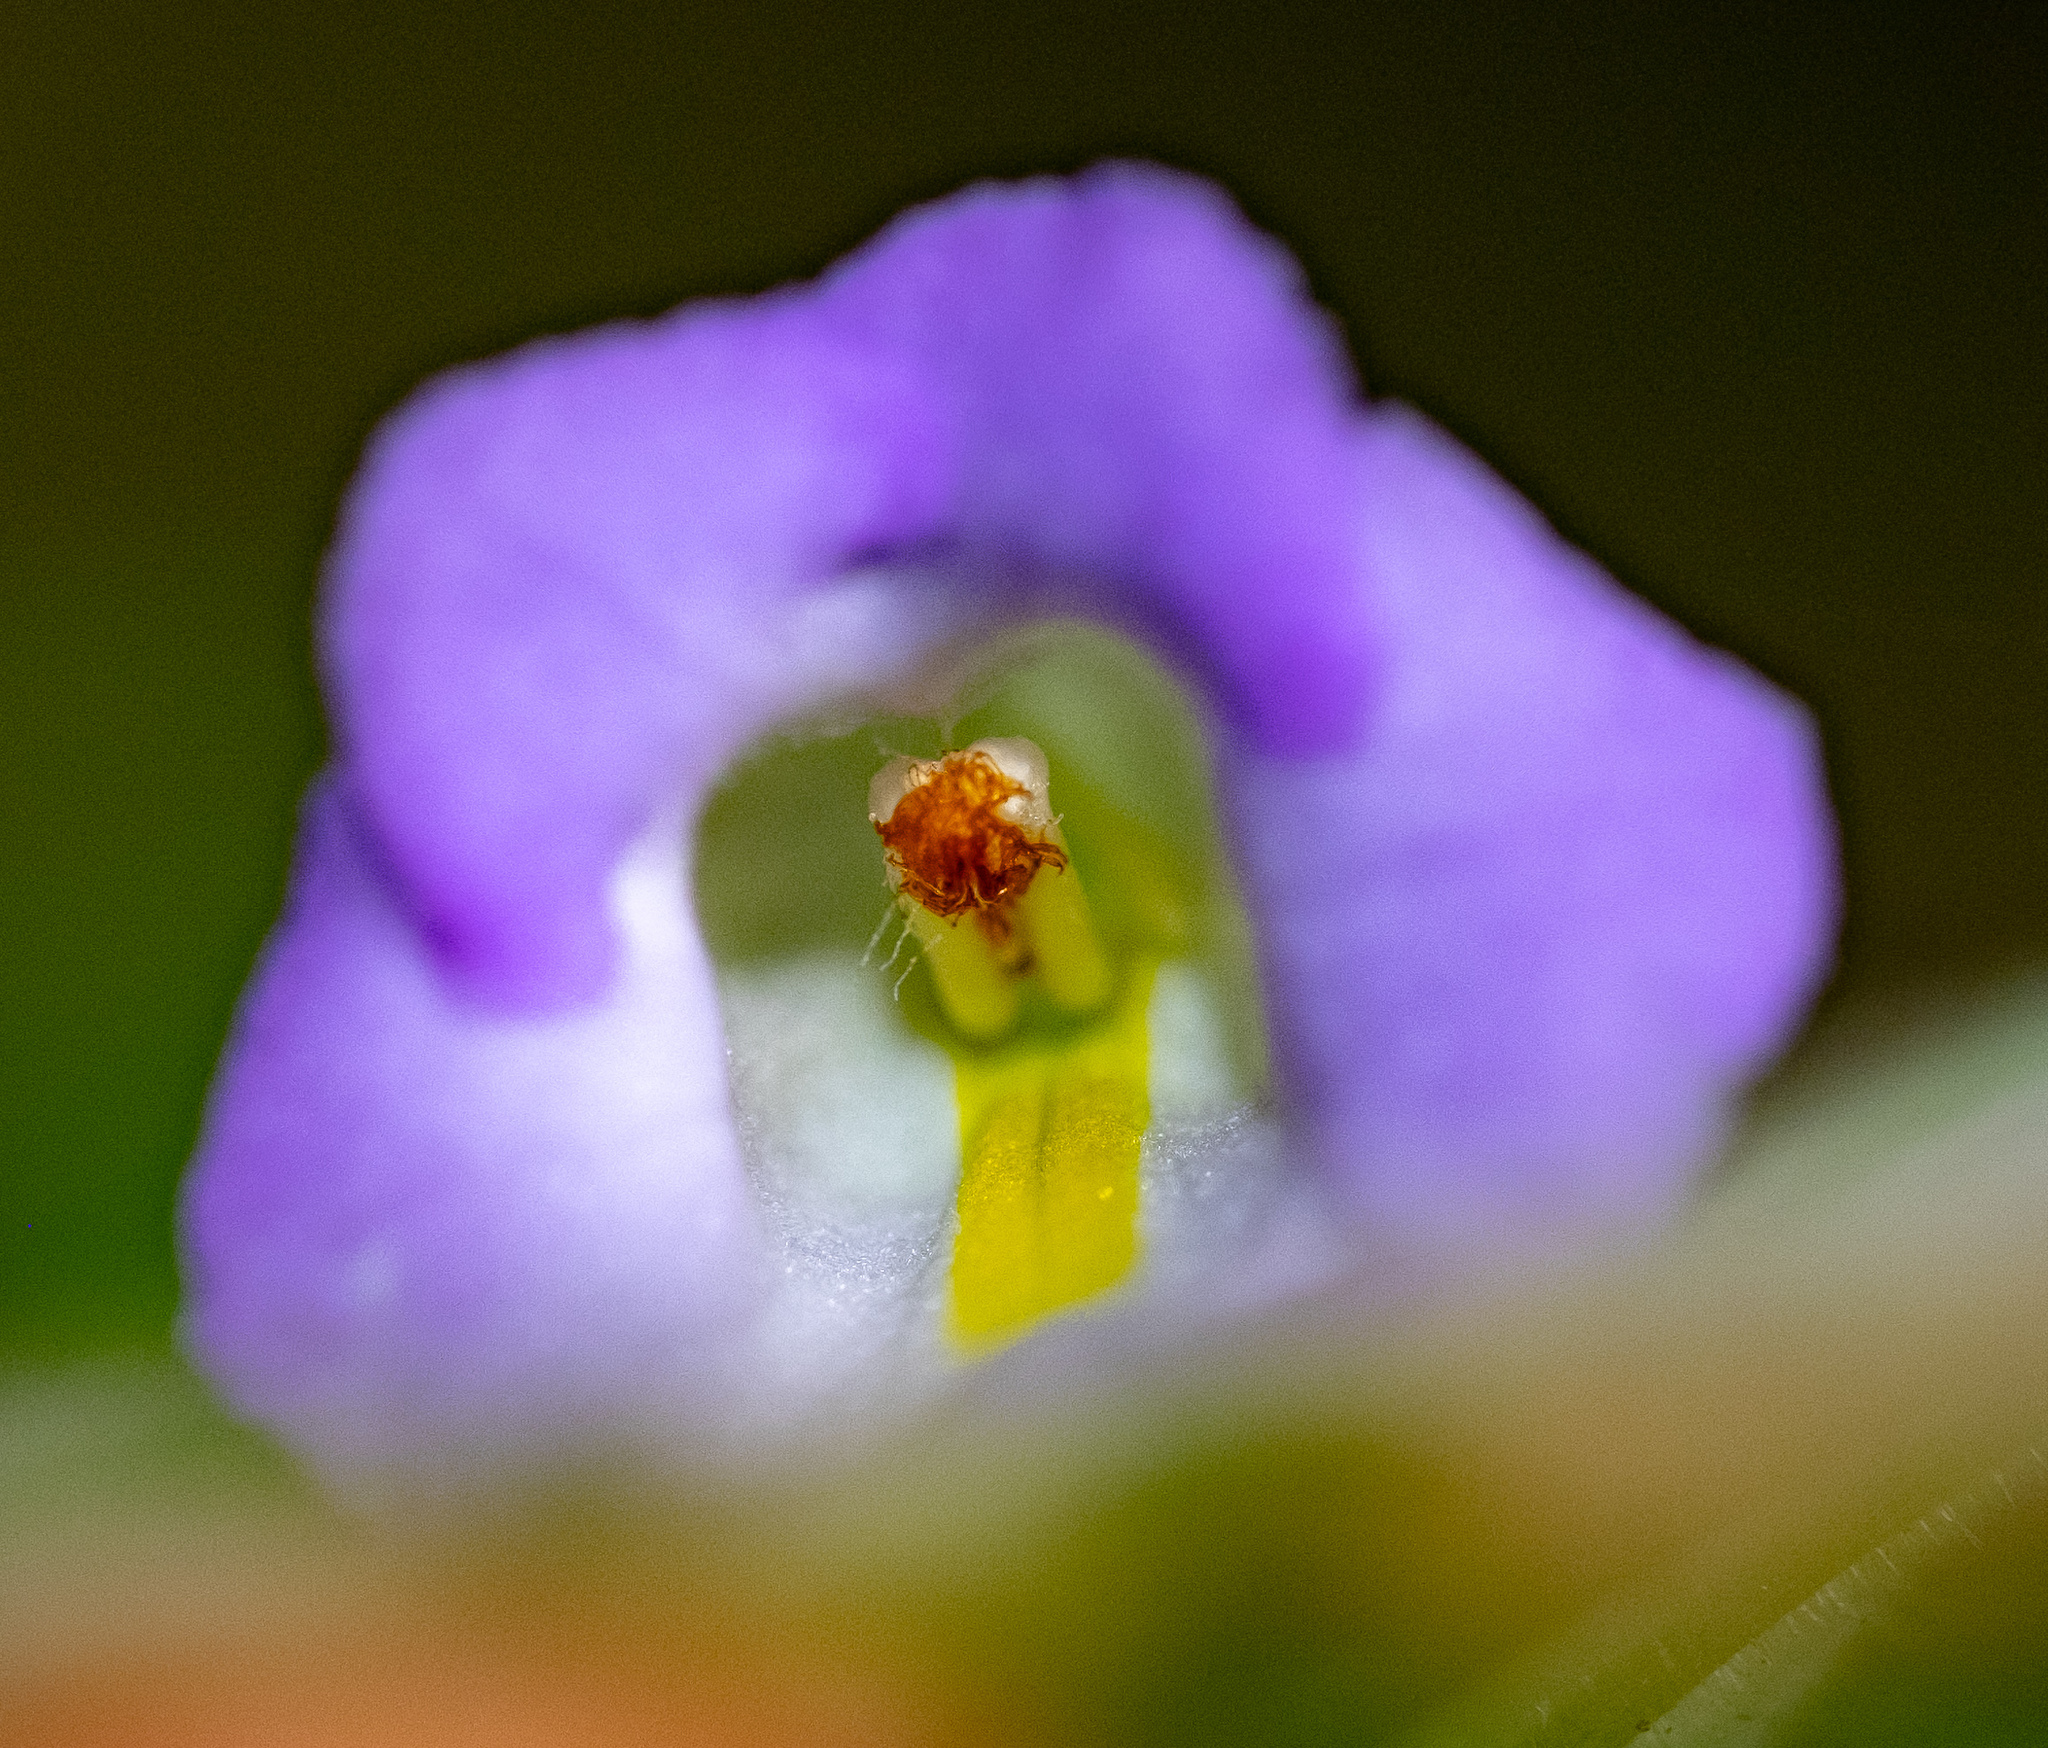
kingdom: Plantae
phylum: Tracheophyta
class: Magnoliopsida
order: Lamiales
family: Gesneriaceae
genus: Microchirita
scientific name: Microchirita lavandulacea
